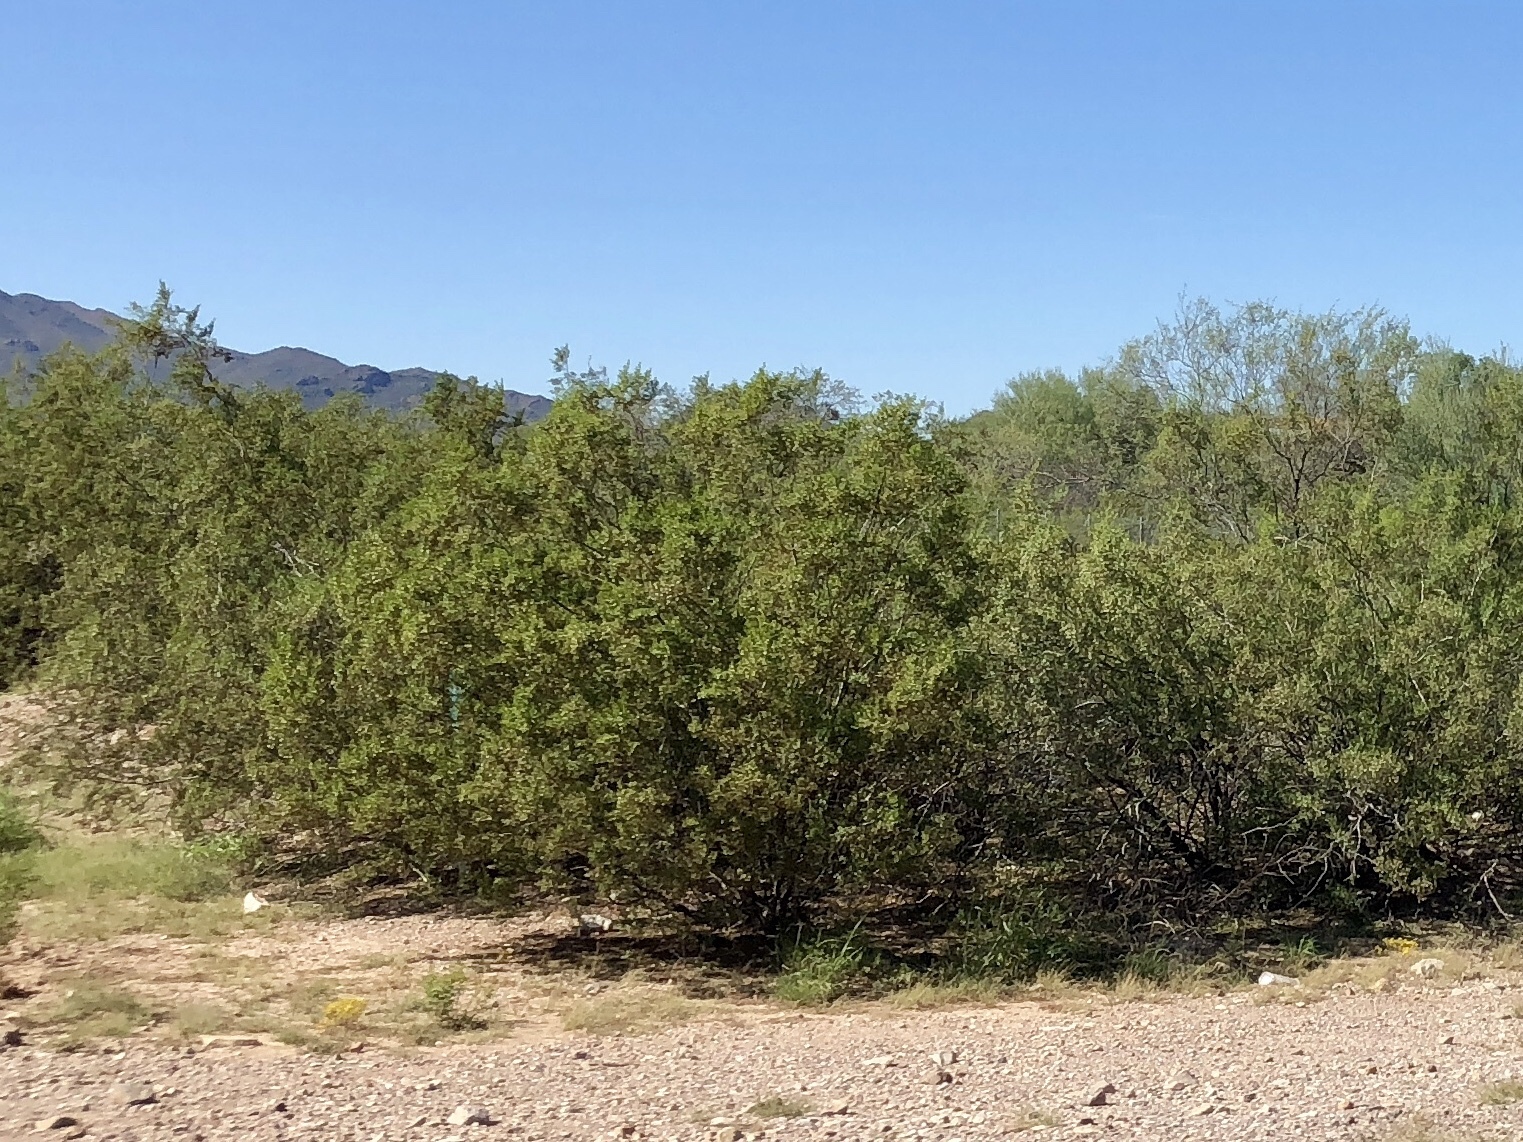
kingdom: Plantae
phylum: Tracheophyta
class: Magnoliopsida
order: Zygophyllales
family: Zygophyllaceae
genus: Larrea
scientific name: Larrea tridentata
